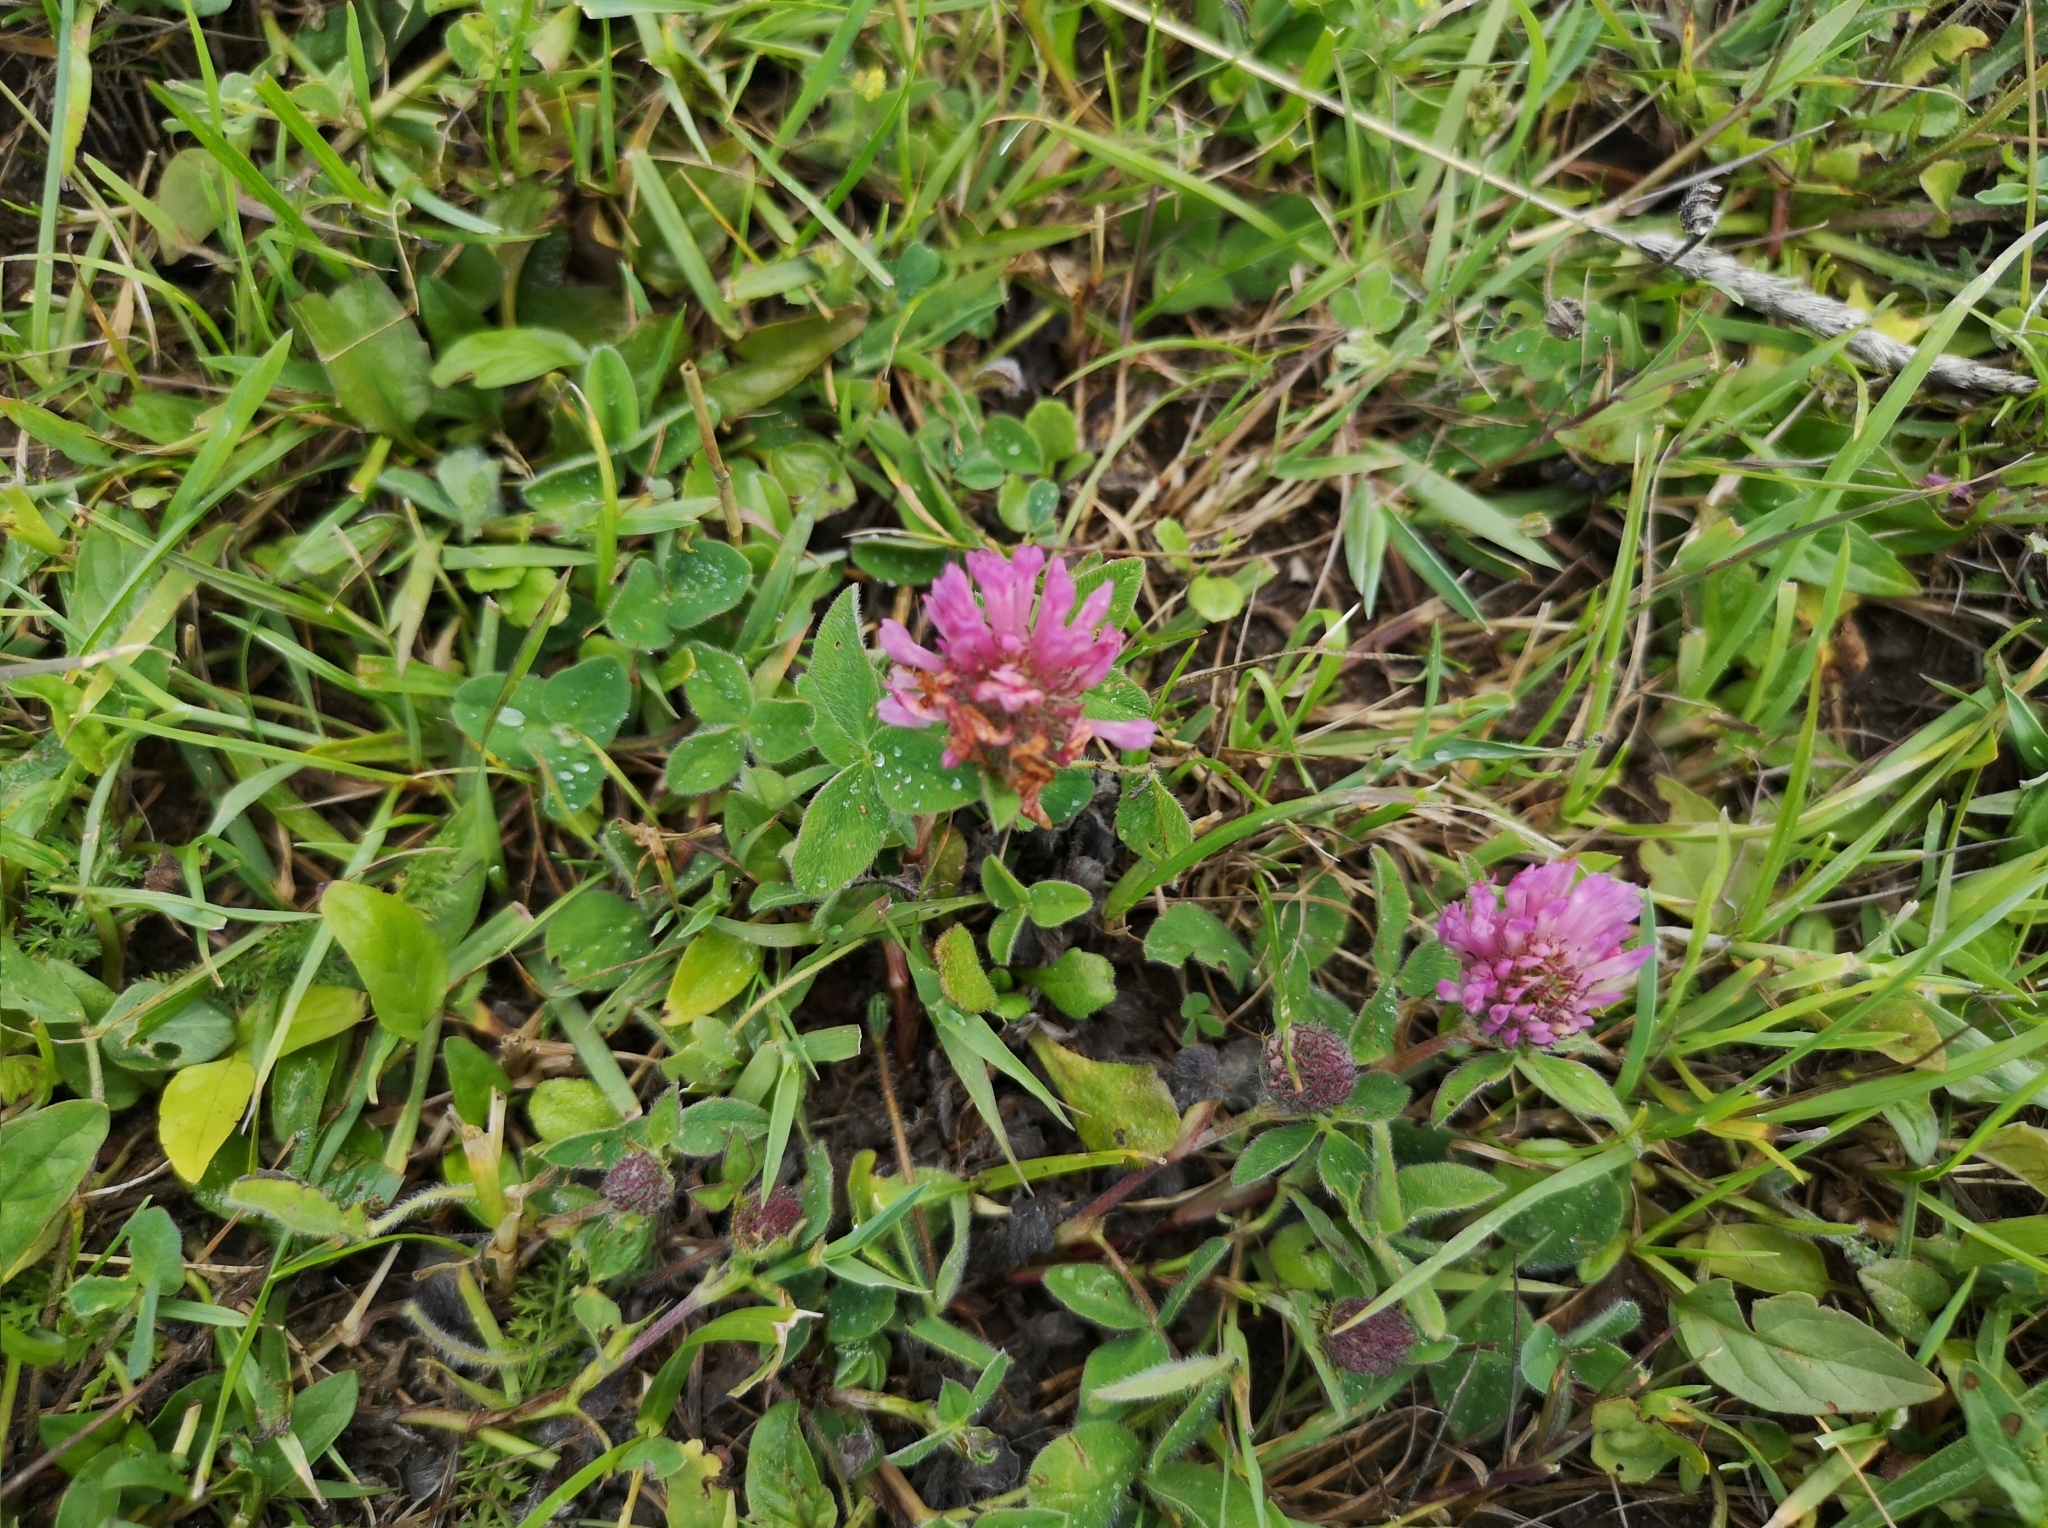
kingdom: Plantae
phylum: Tracheophyta
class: Magnoliopsida
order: Fabales
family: Fabaceae
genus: Trifolium
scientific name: Trifolium pratense
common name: Red clover
